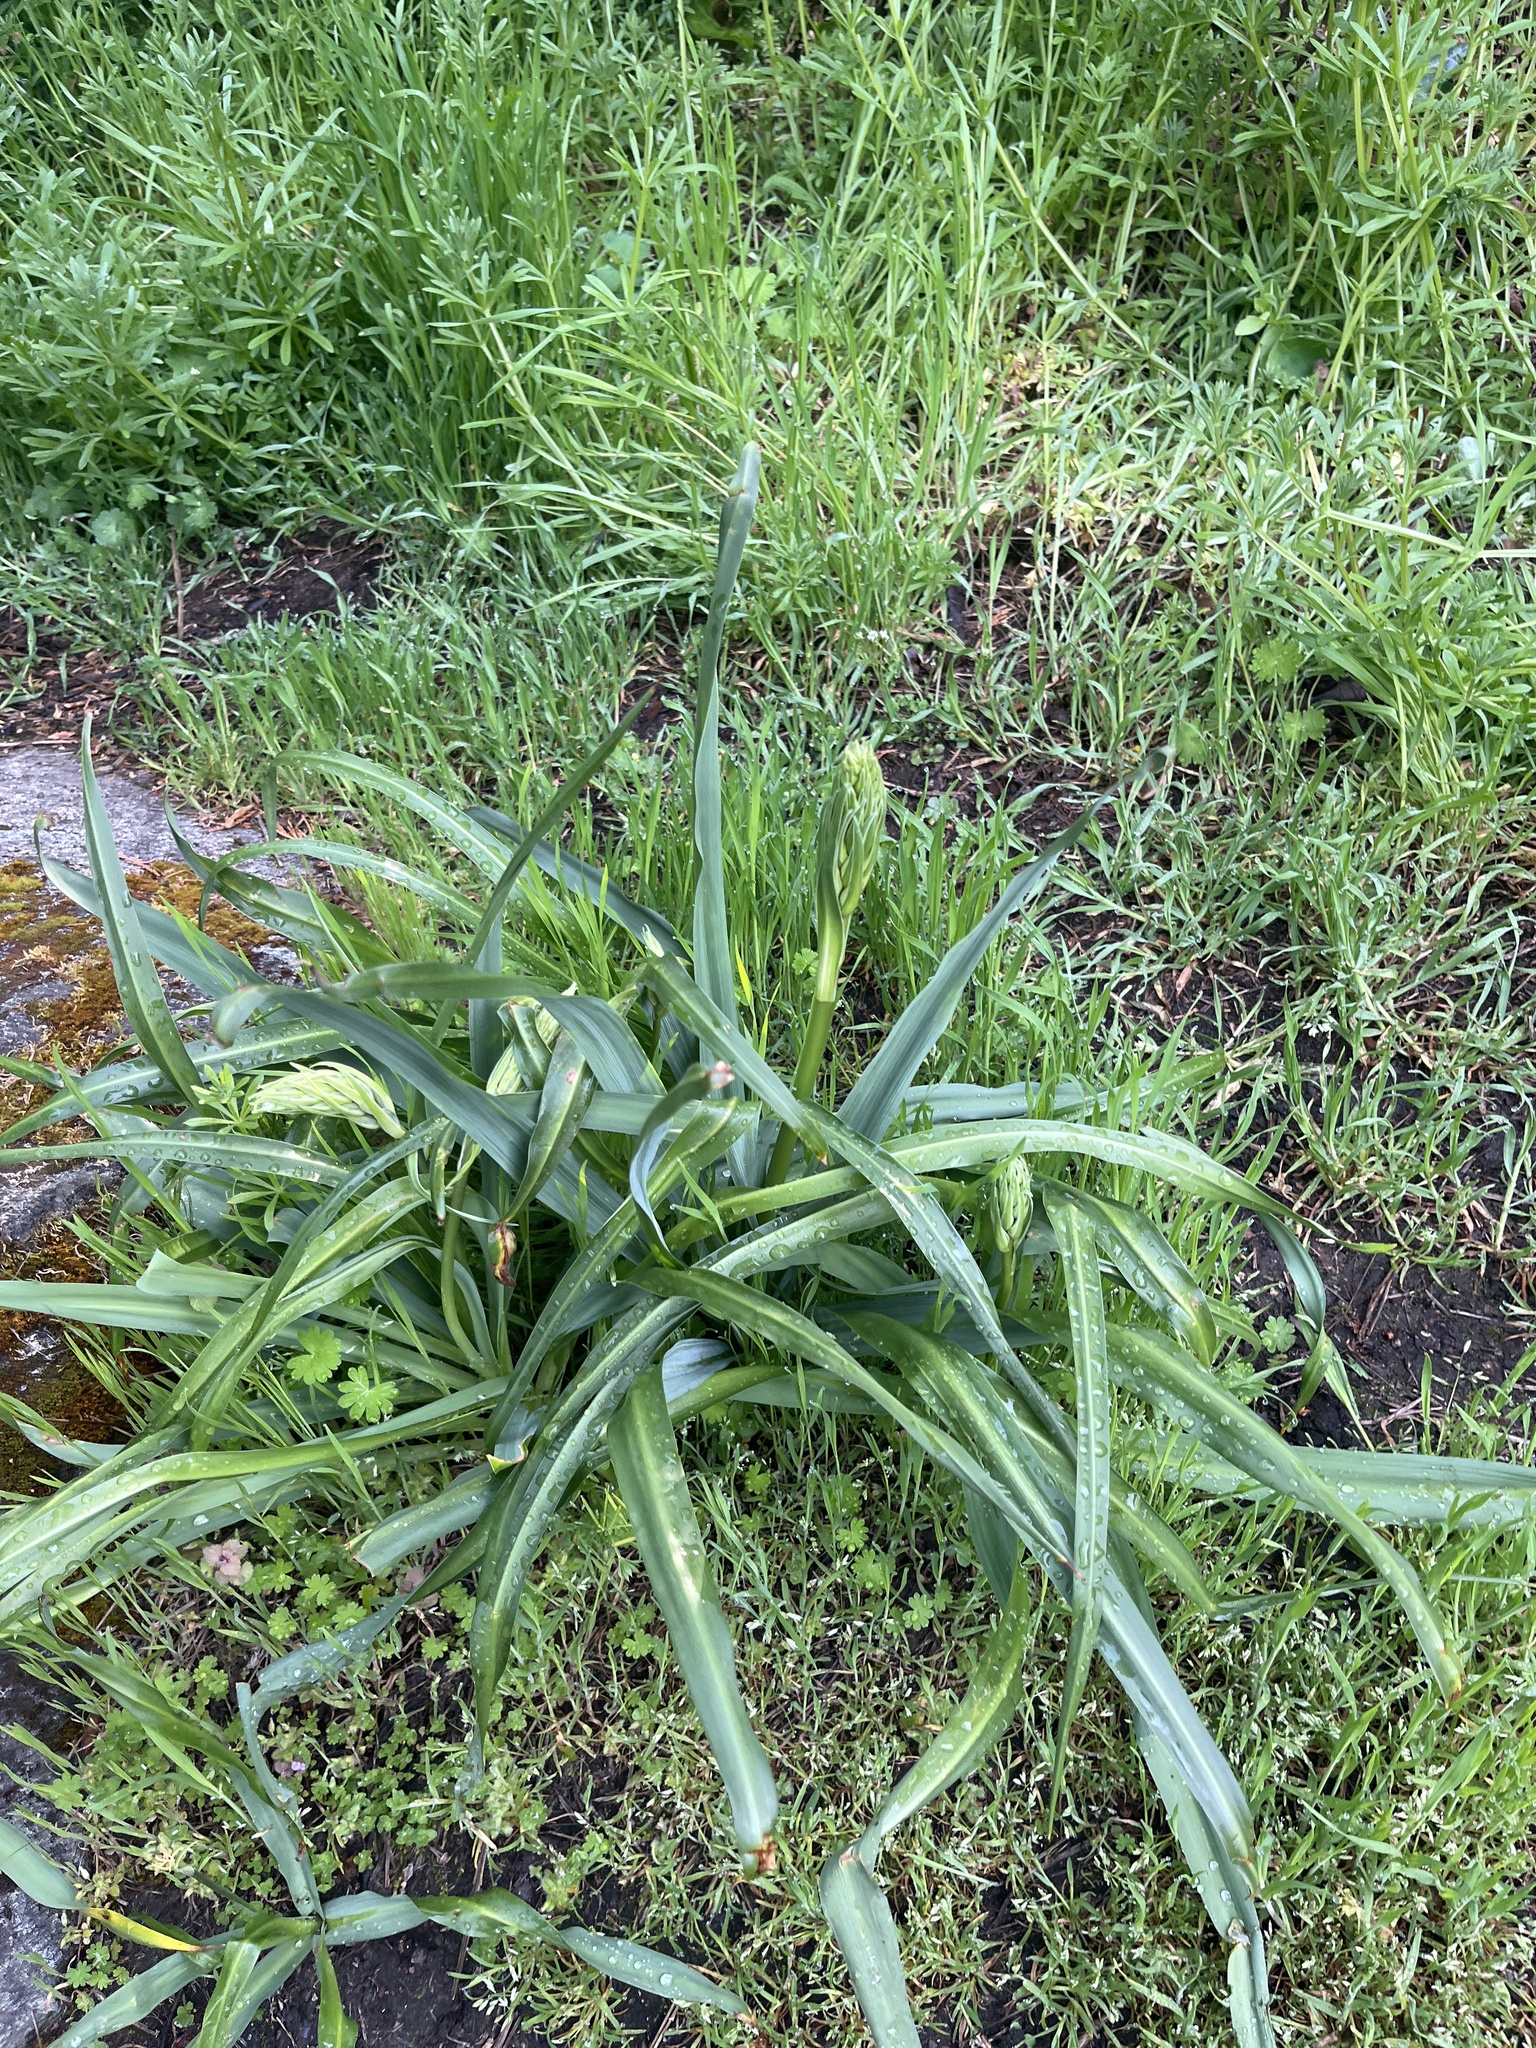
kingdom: Plantae
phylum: Tracheophyta
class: Liliopsida
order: Asparagales
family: Asparagaceae
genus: Camassia
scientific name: Camassia leichtlinii
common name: Leichtlin's camas
